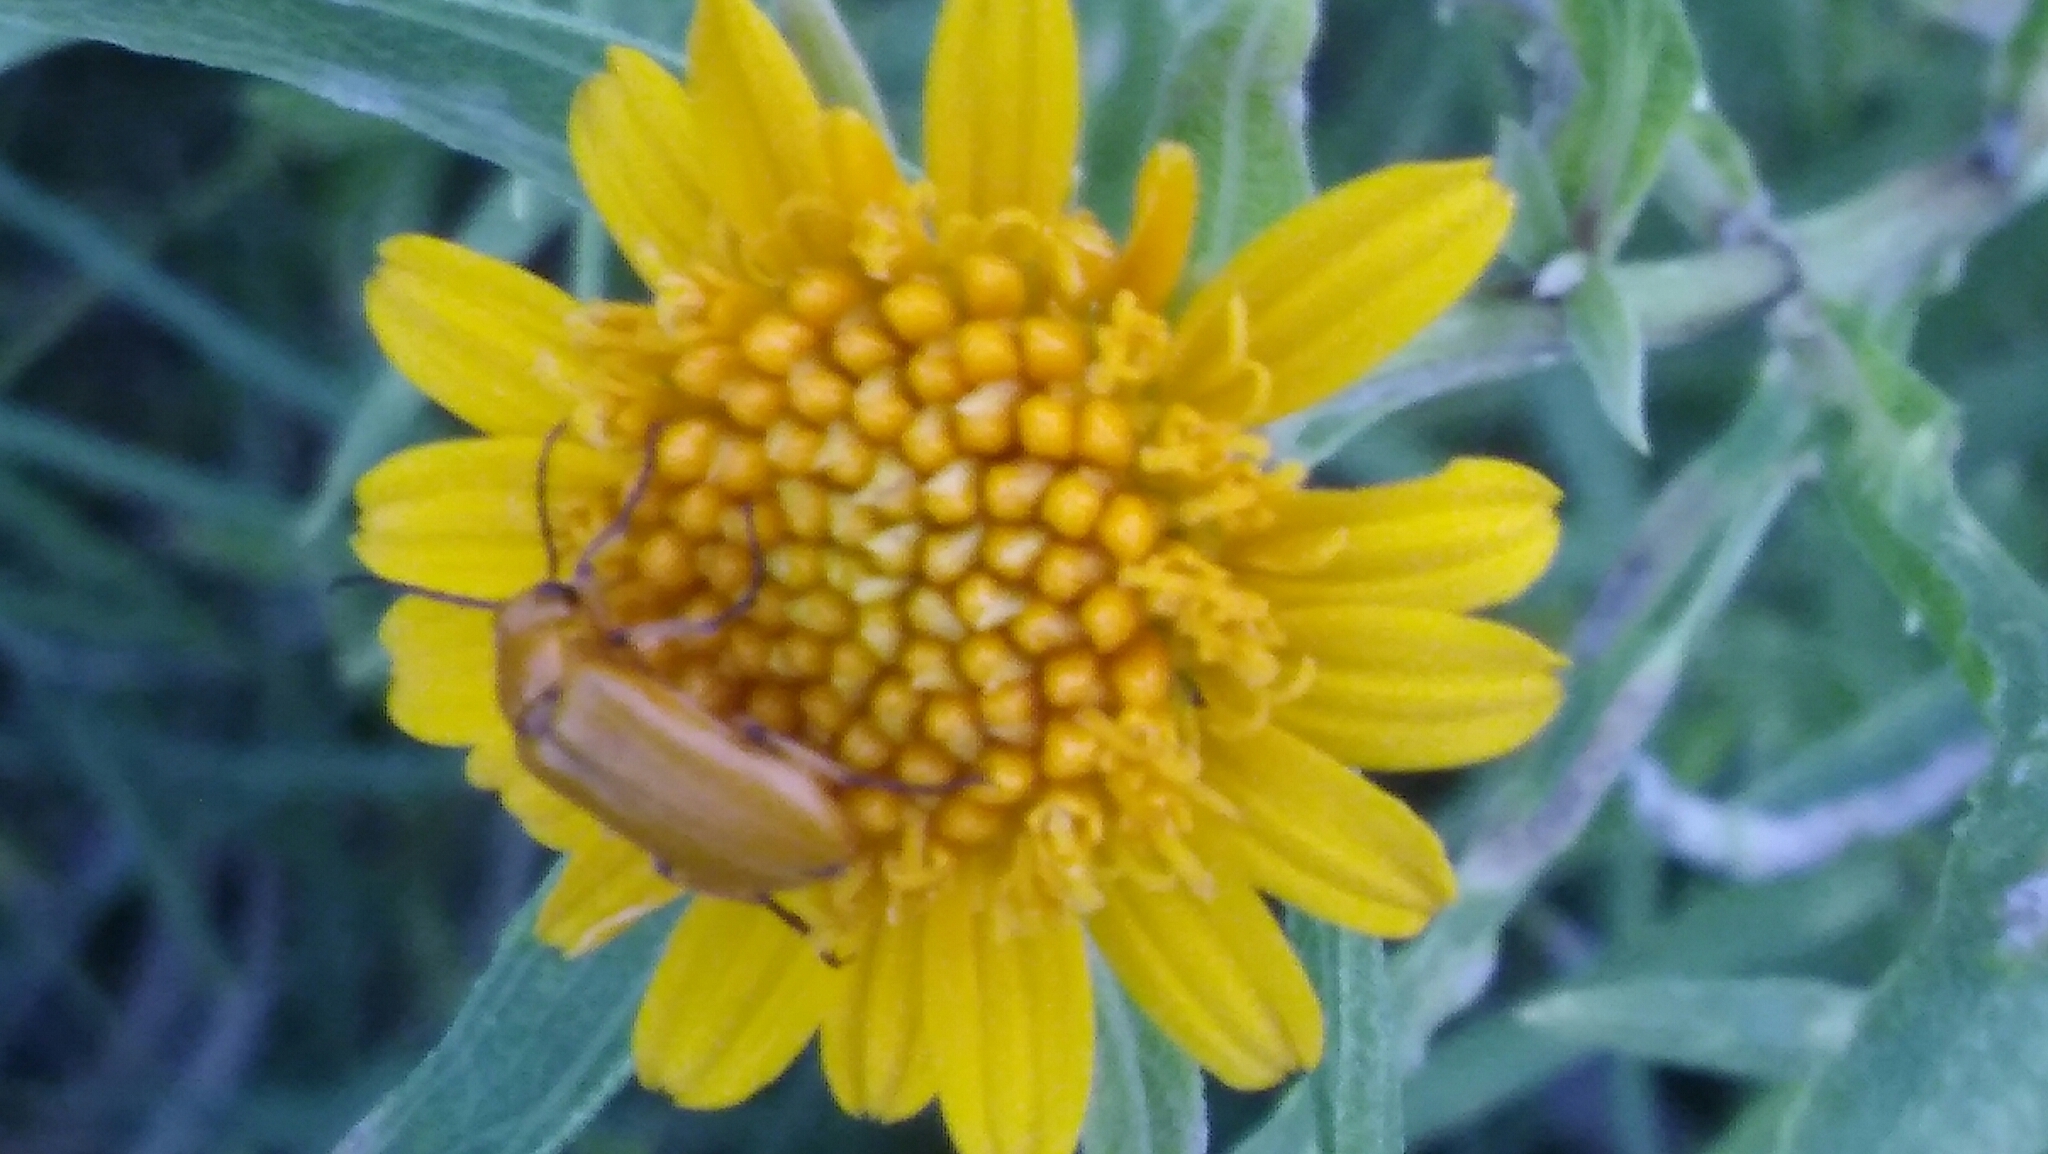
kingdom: Animalia
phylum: Arthropoda
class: Insecta
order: Coleoptera
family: Meloidae
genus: Nemognatha
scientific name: Nemognatha
